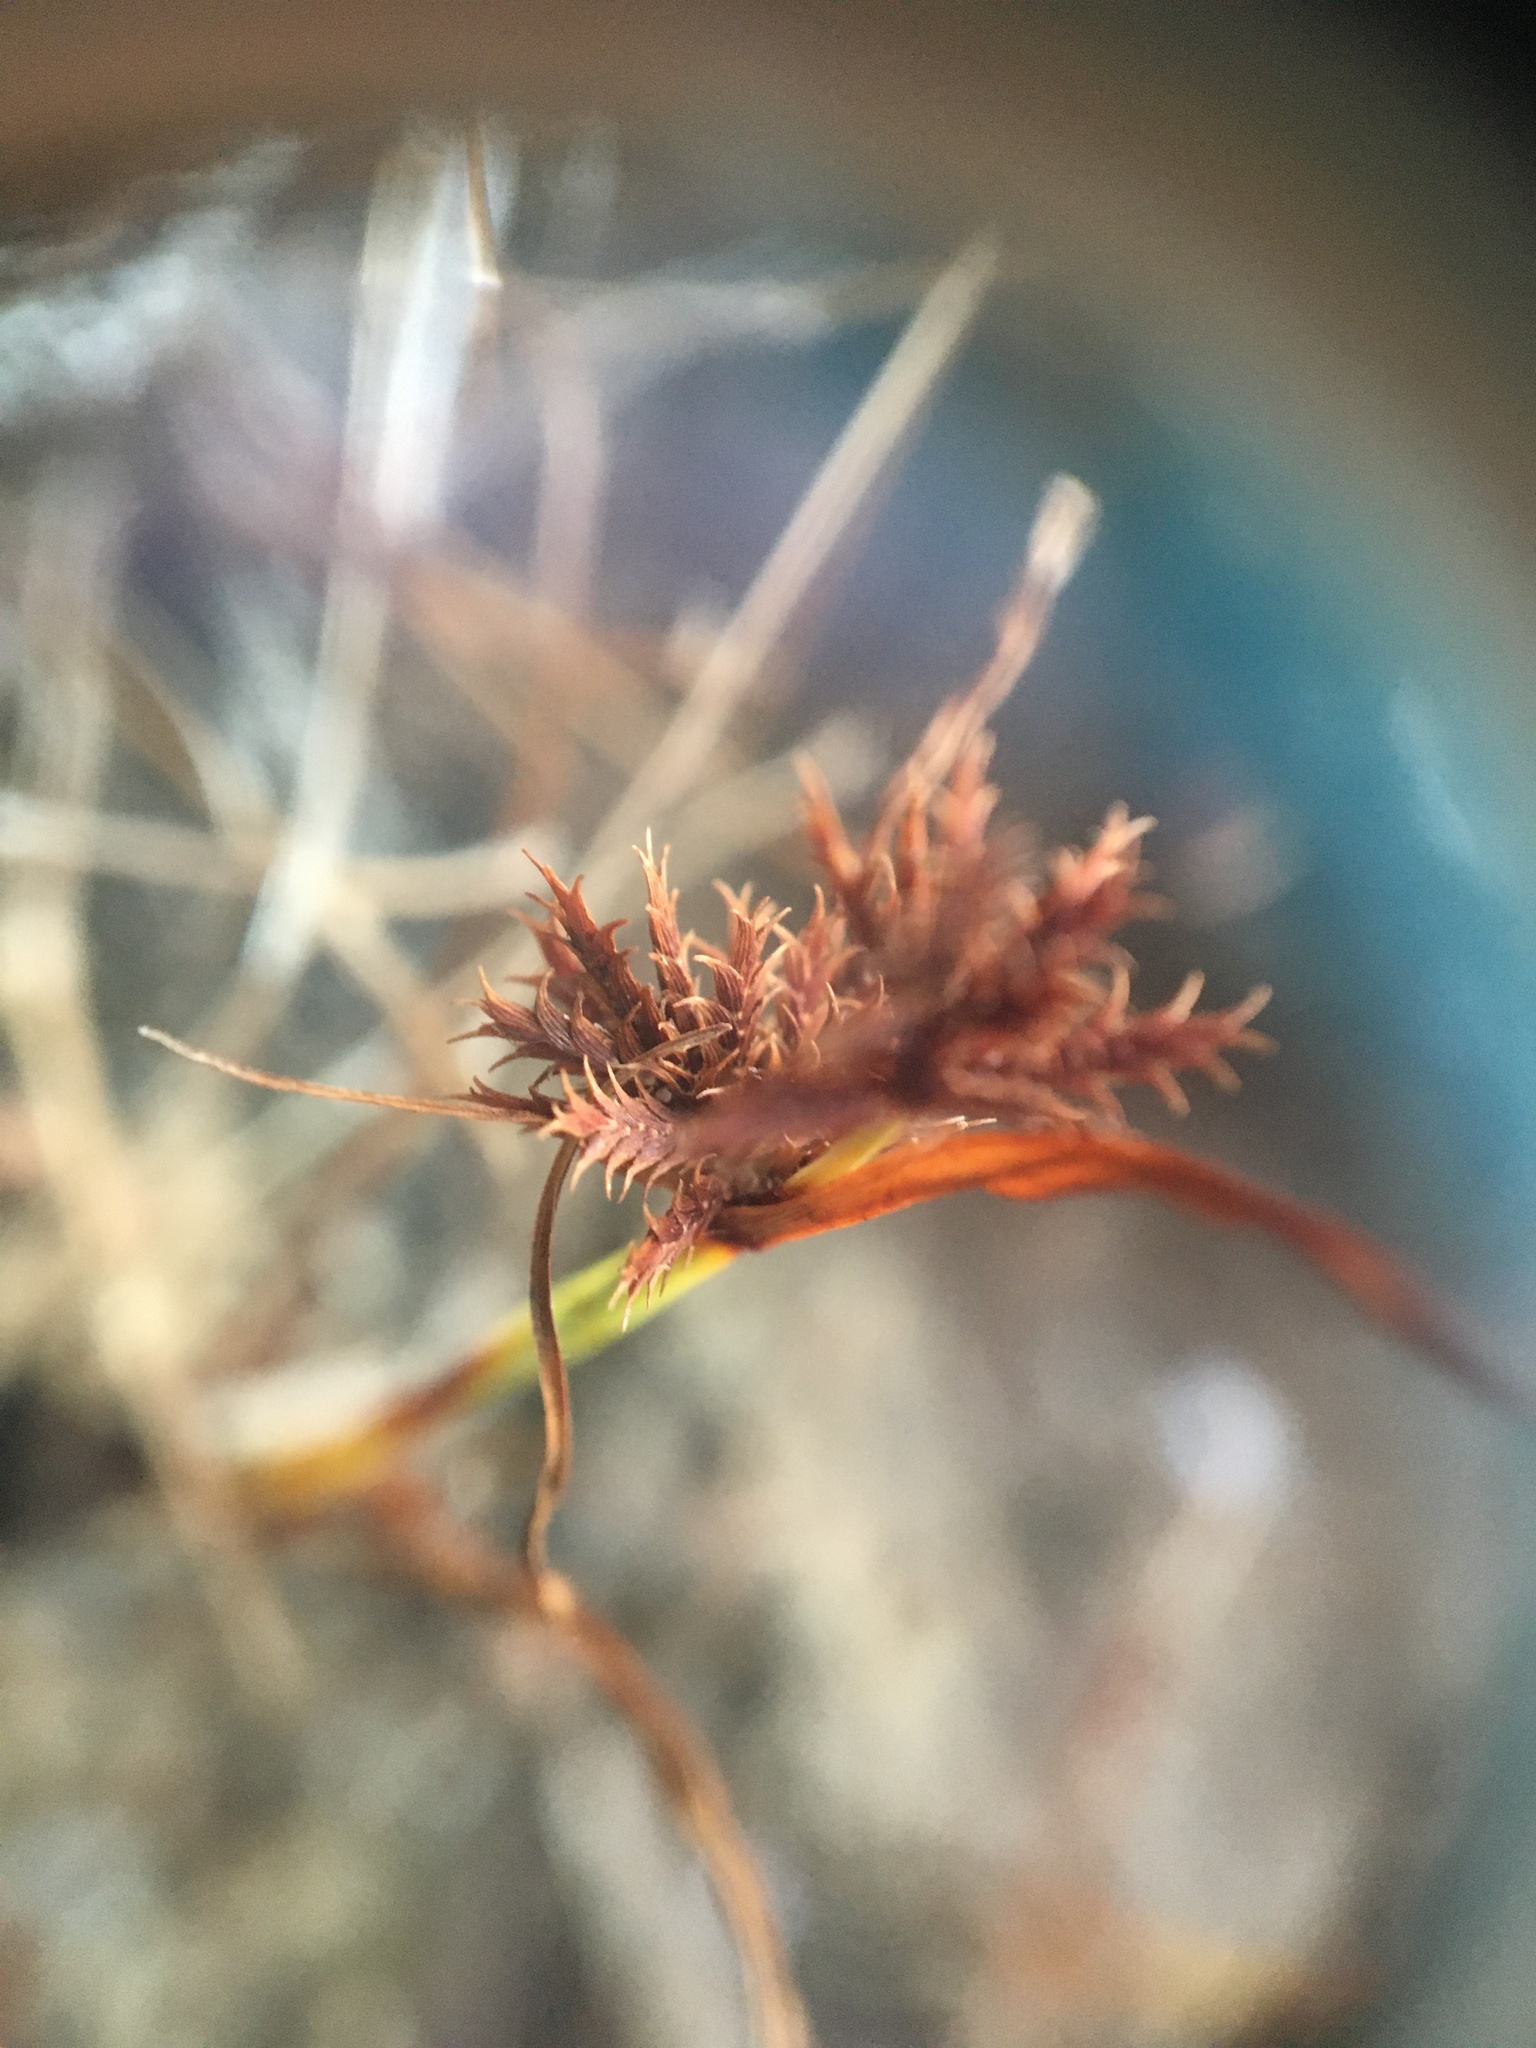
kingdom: Plantae
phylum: Tracheophyta
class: Liliopsida
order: Poales
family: Cyperaceae
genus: Cyperus
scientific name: Cyperus squarrosus
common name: Awned cyperus
